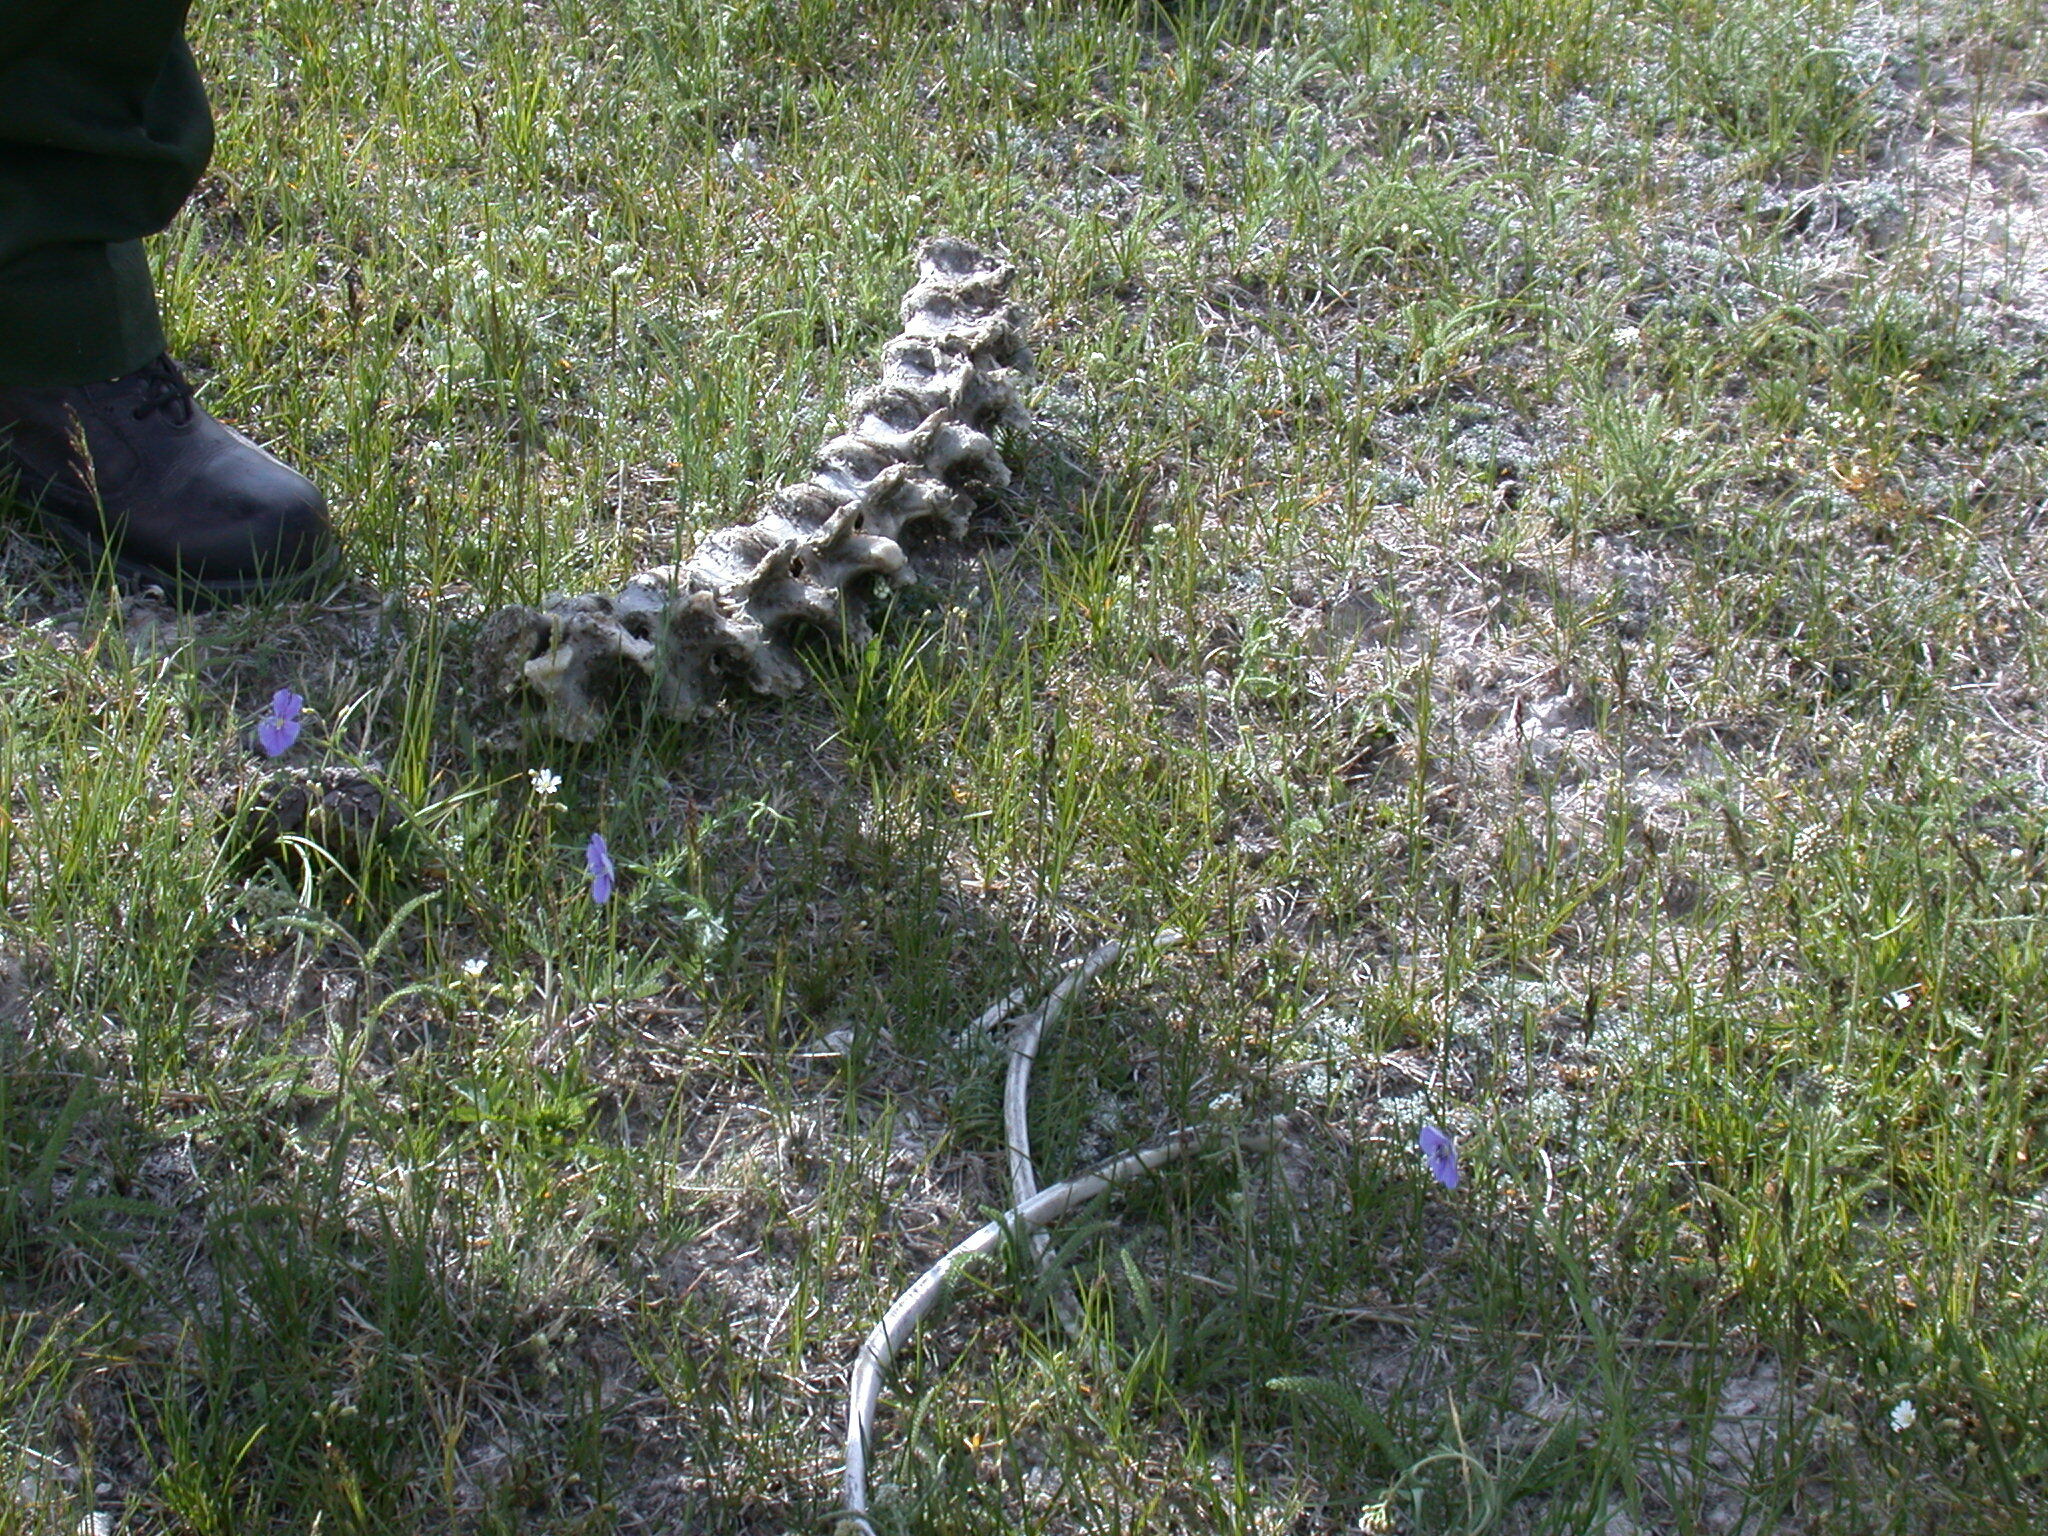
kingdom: Animalia
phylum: Chordata
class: Mammalia
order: Artiodactyla
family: Bovidae
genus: Bison
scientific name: Bison bison
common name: American bison
